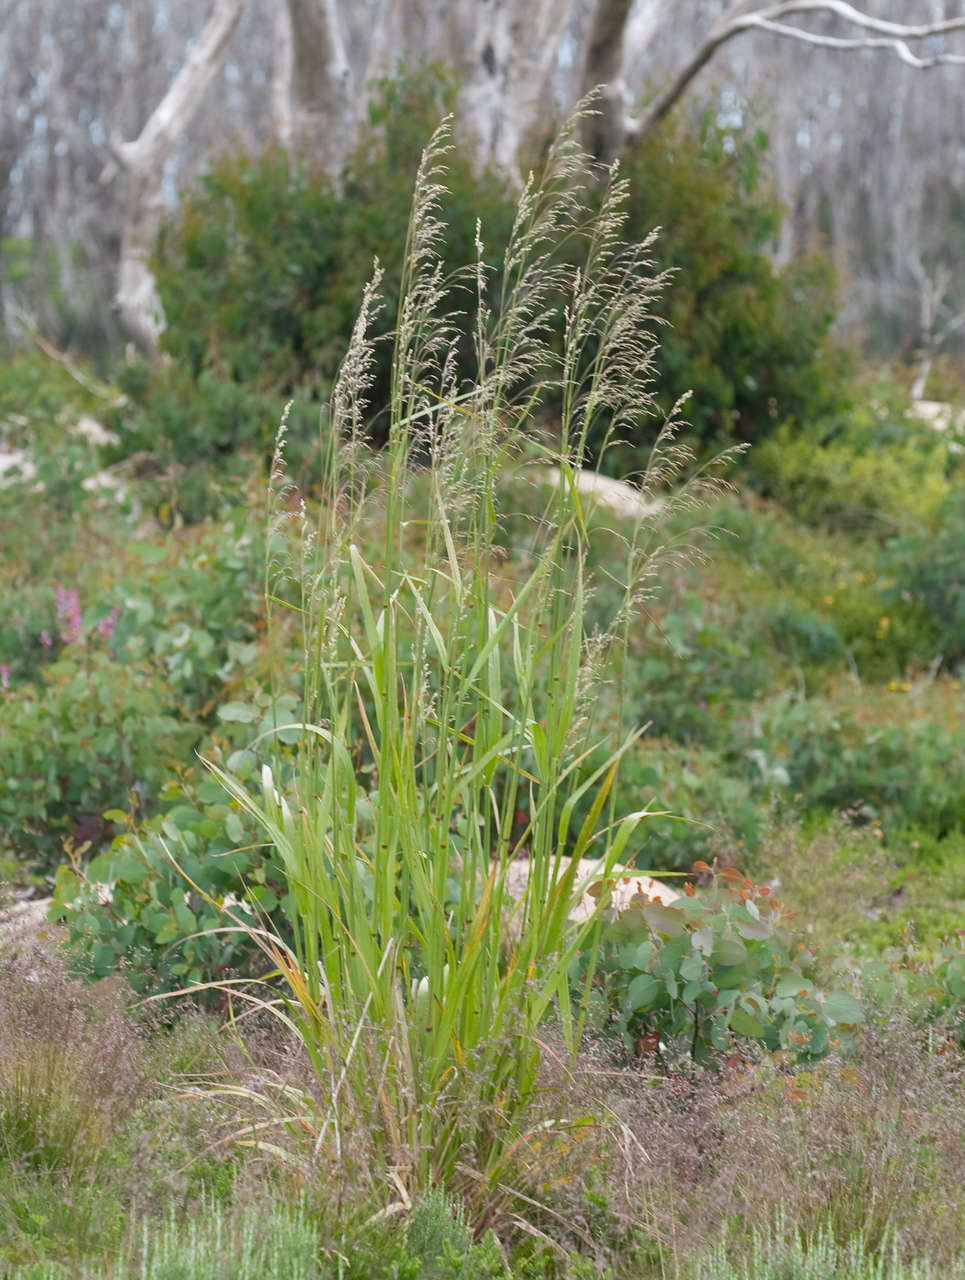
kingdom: Plantae
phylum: Tracheophyta
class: Liliopsida
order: Poales
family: Poaceae
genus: Dryopoa
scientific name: Dryopoa dives
